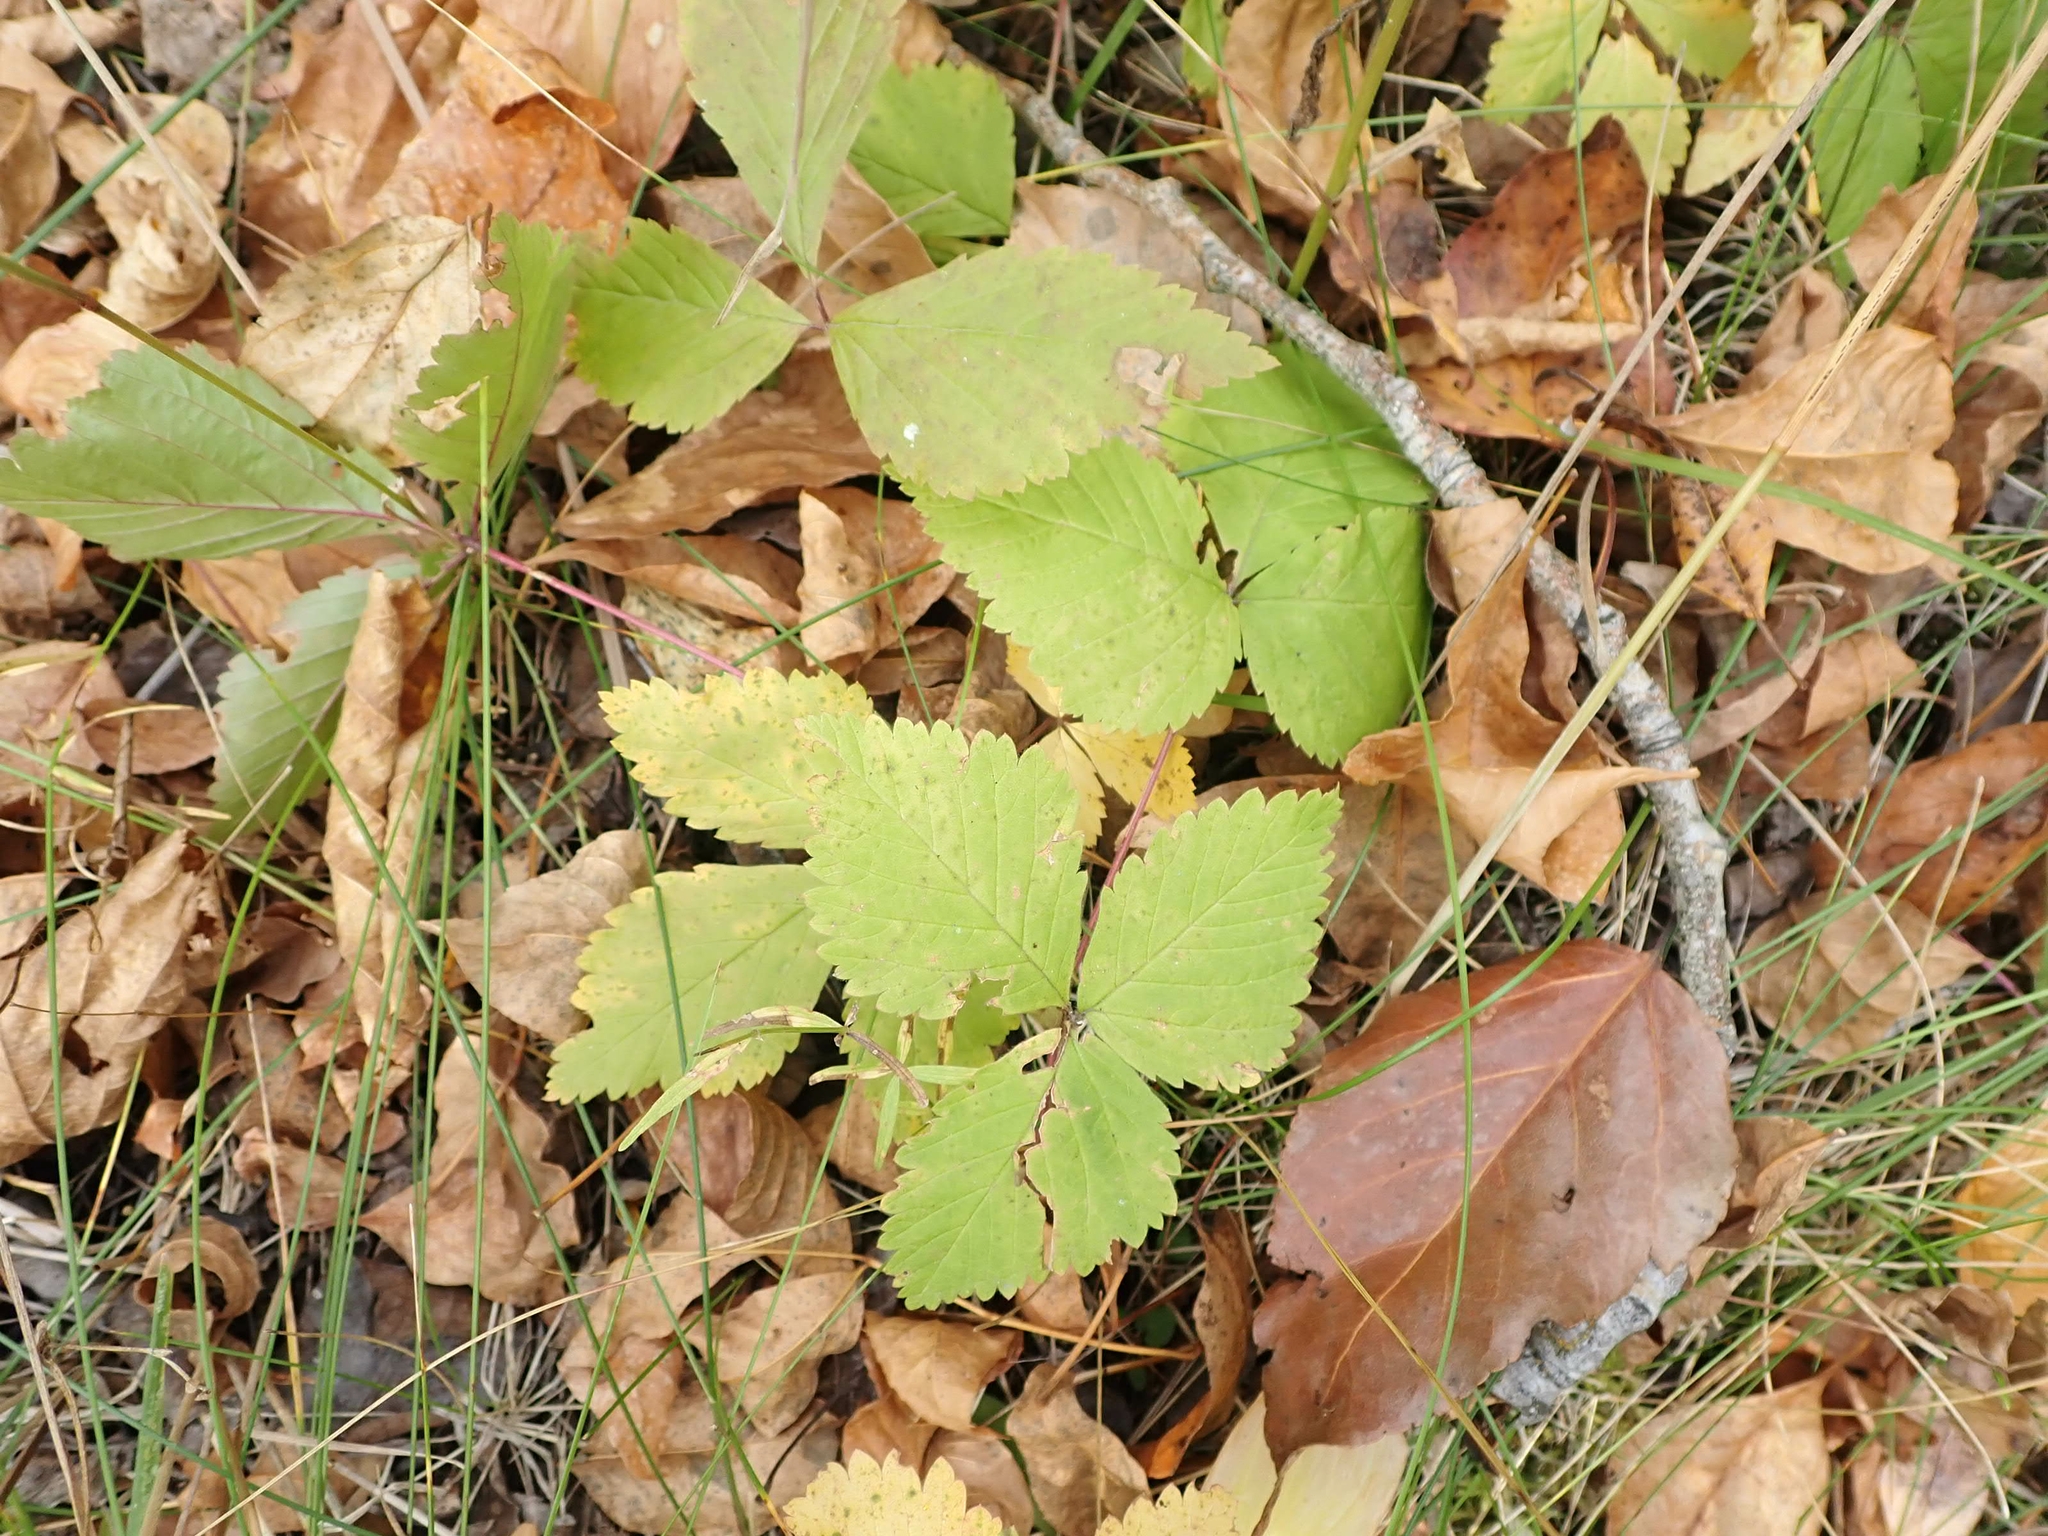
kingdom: Plantae
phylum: Tracheophyta
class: Magnoliopsida
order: Rosales
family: Rosaceae
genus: Rubus
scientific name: Rubus pubescens
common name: Dwarf raspberry
